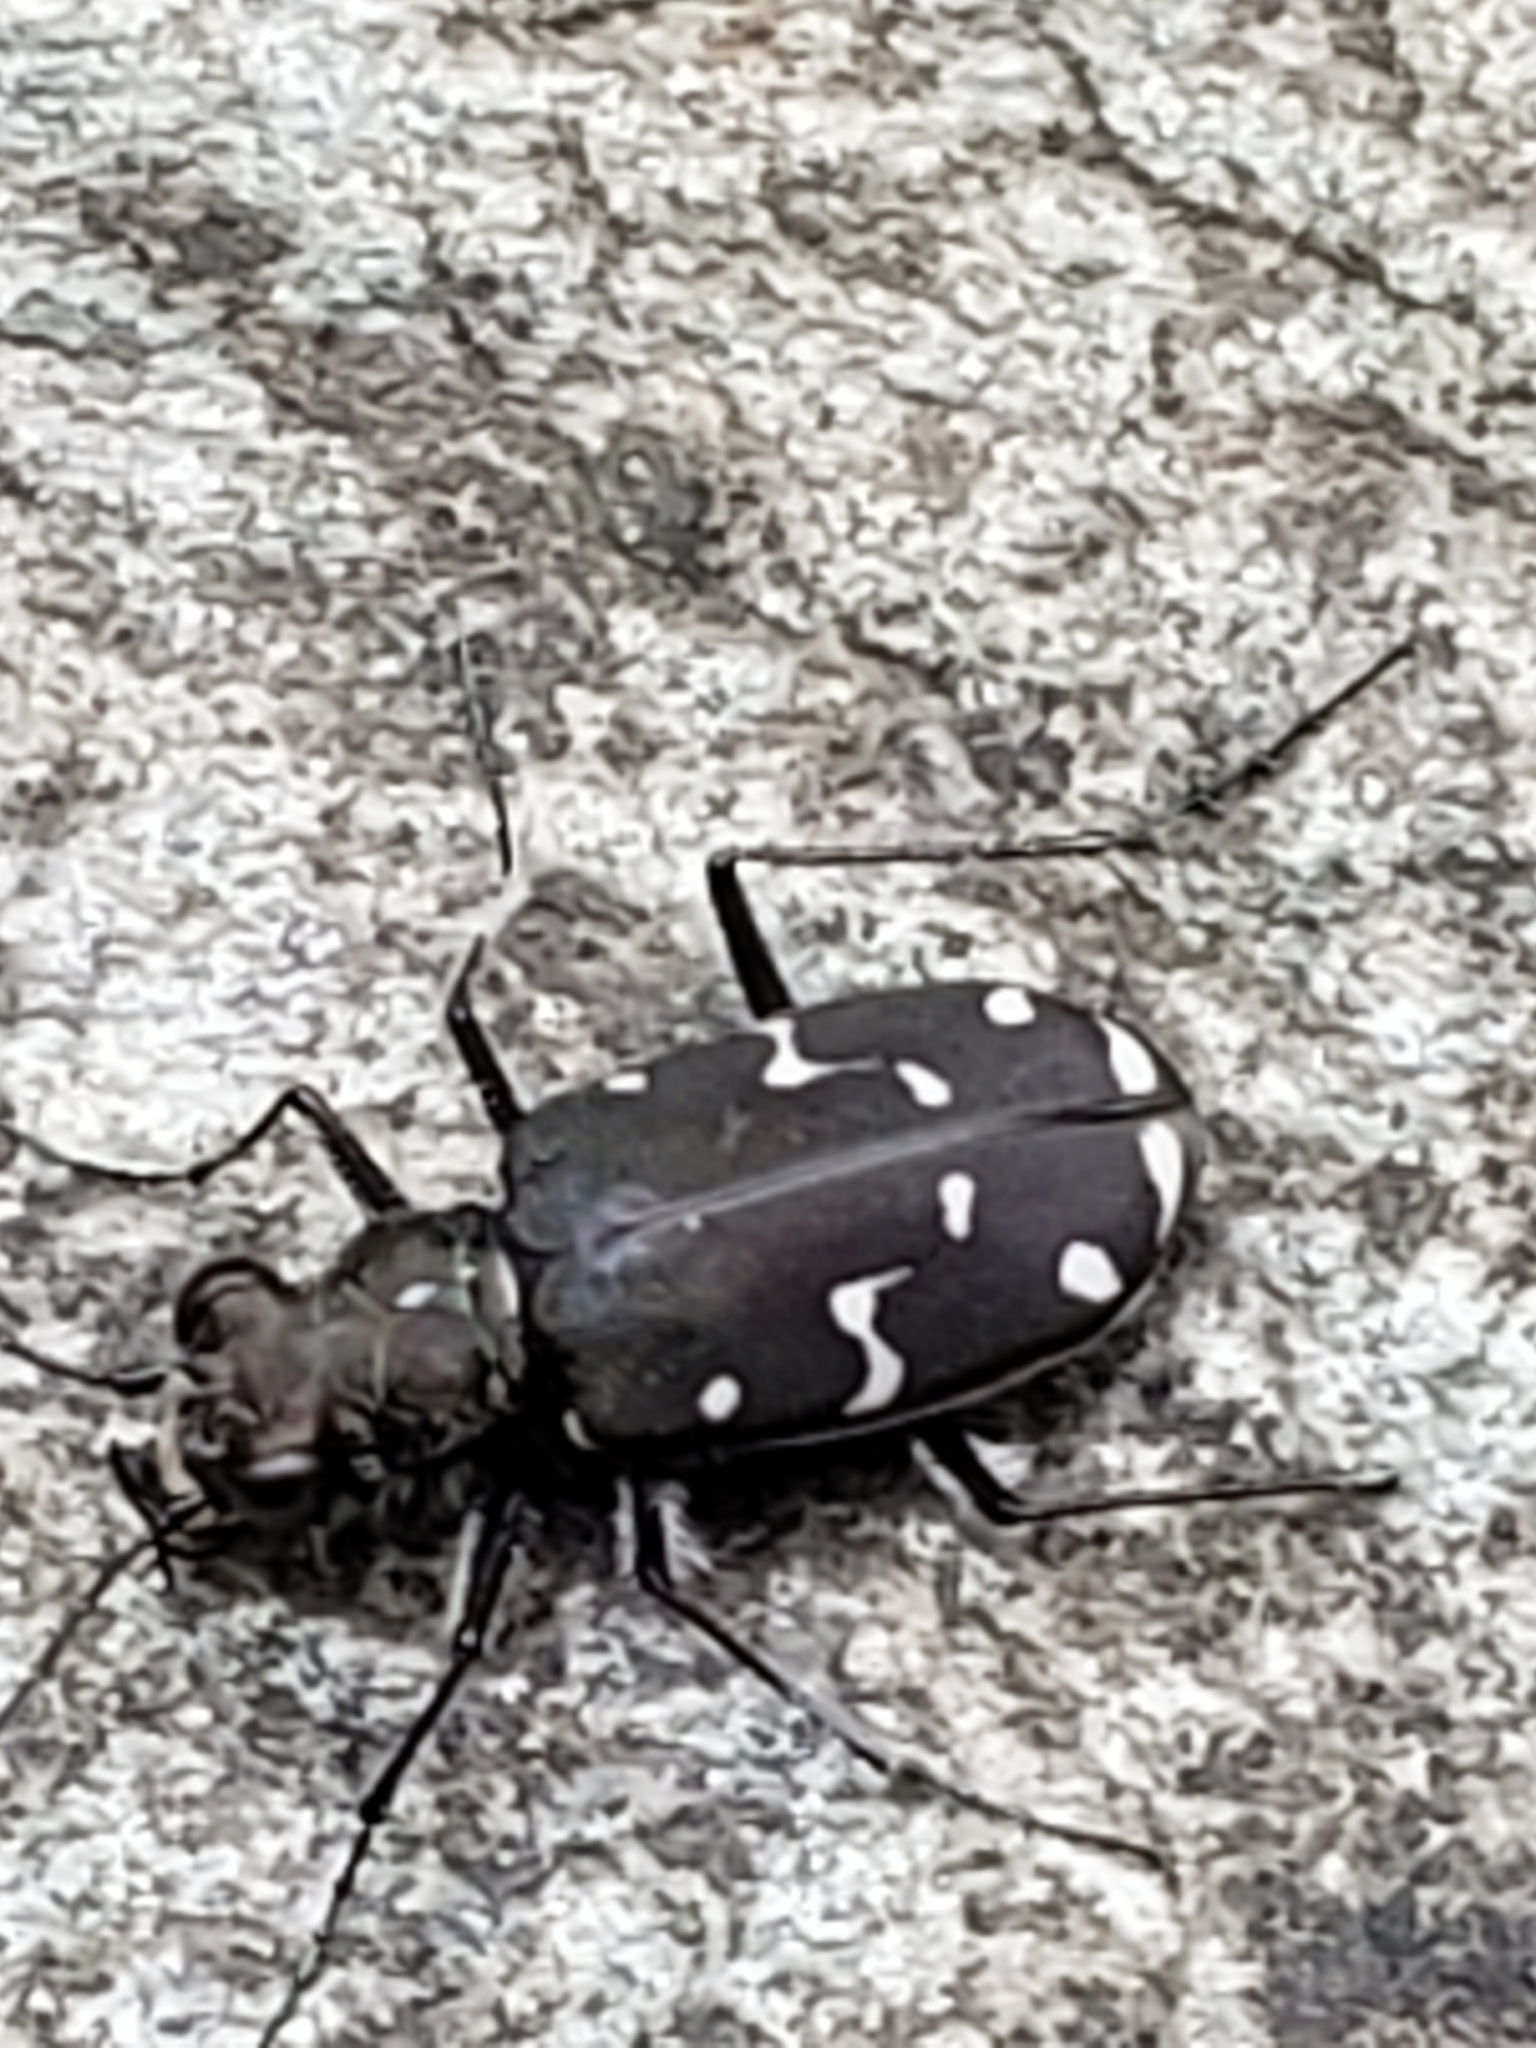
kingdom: Animalia
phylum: Arthropoda
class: Insecta
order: Coleoptera
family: Carabidae
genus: Cicindela
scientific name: Cicindela duodecimguttata
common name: Twelve-spotted tiger beetle
